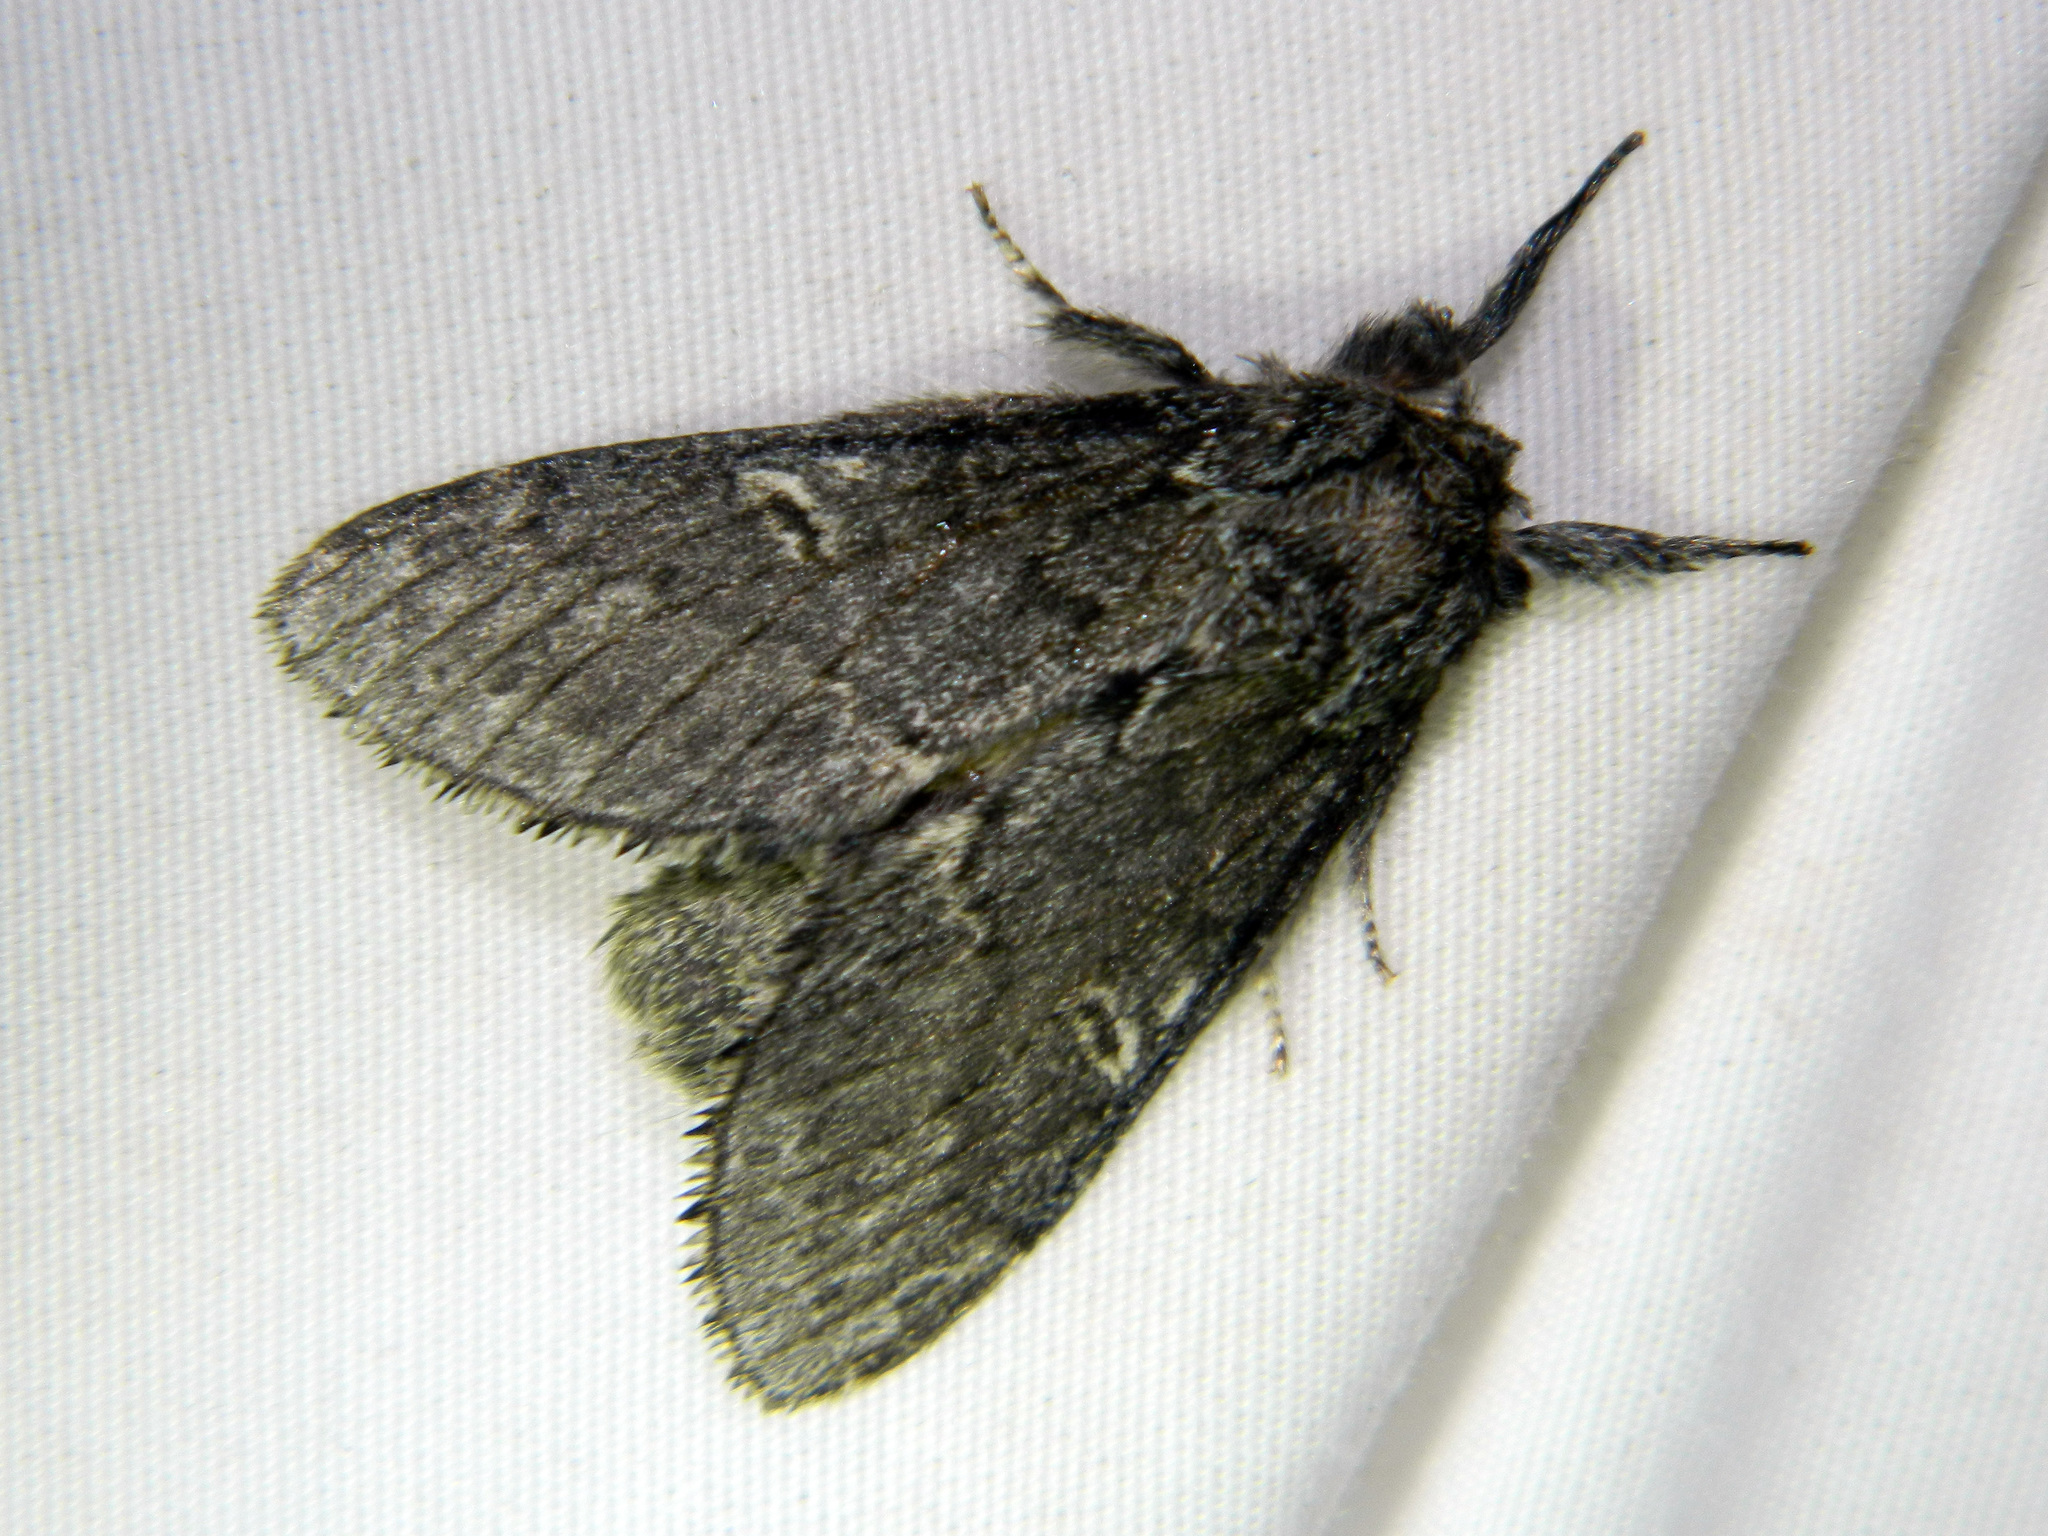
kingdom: Animalia
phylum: Arthropoda
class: Insecta
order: Lepidoptera
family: Notodontidae
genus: Notodonta
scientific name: Notodonta torva
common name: Large dark prominent
